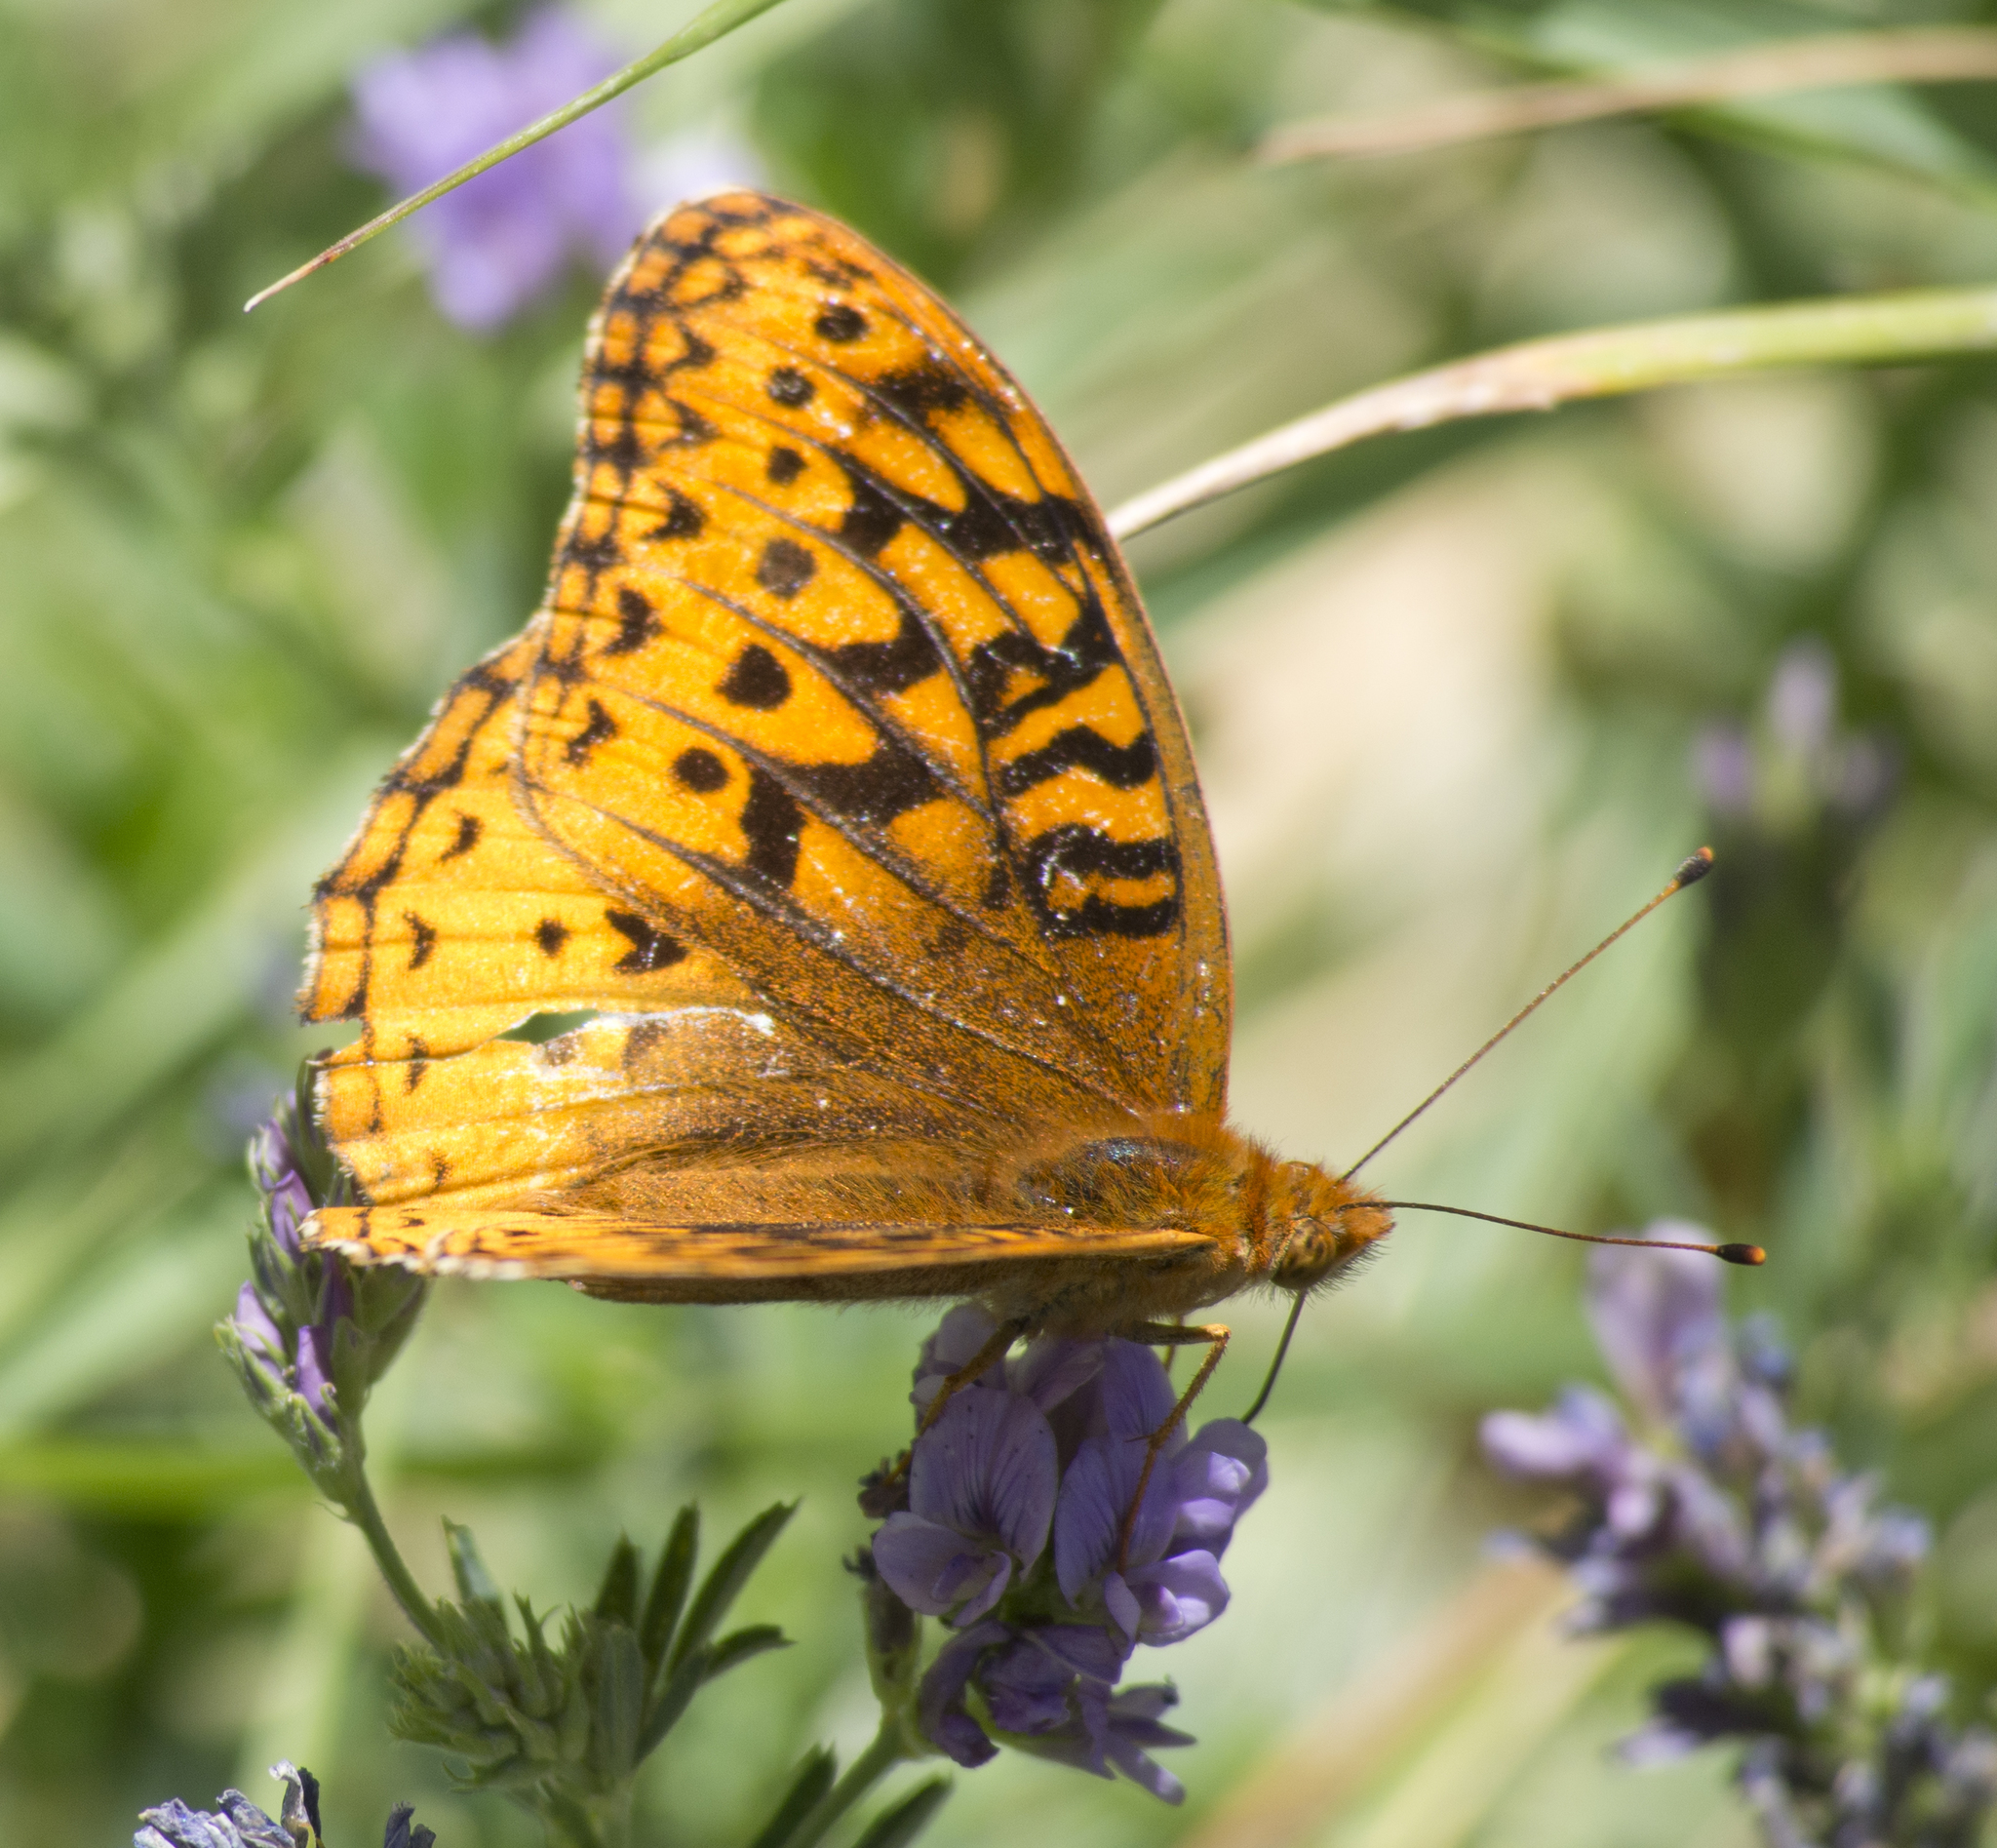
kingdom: Animalia
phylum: Arthropoda
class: Insecta
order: Lepidoptera
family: Nymphalidae
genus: Speyeria
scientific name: Speyeria cybele
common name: Great spangled fritillary
